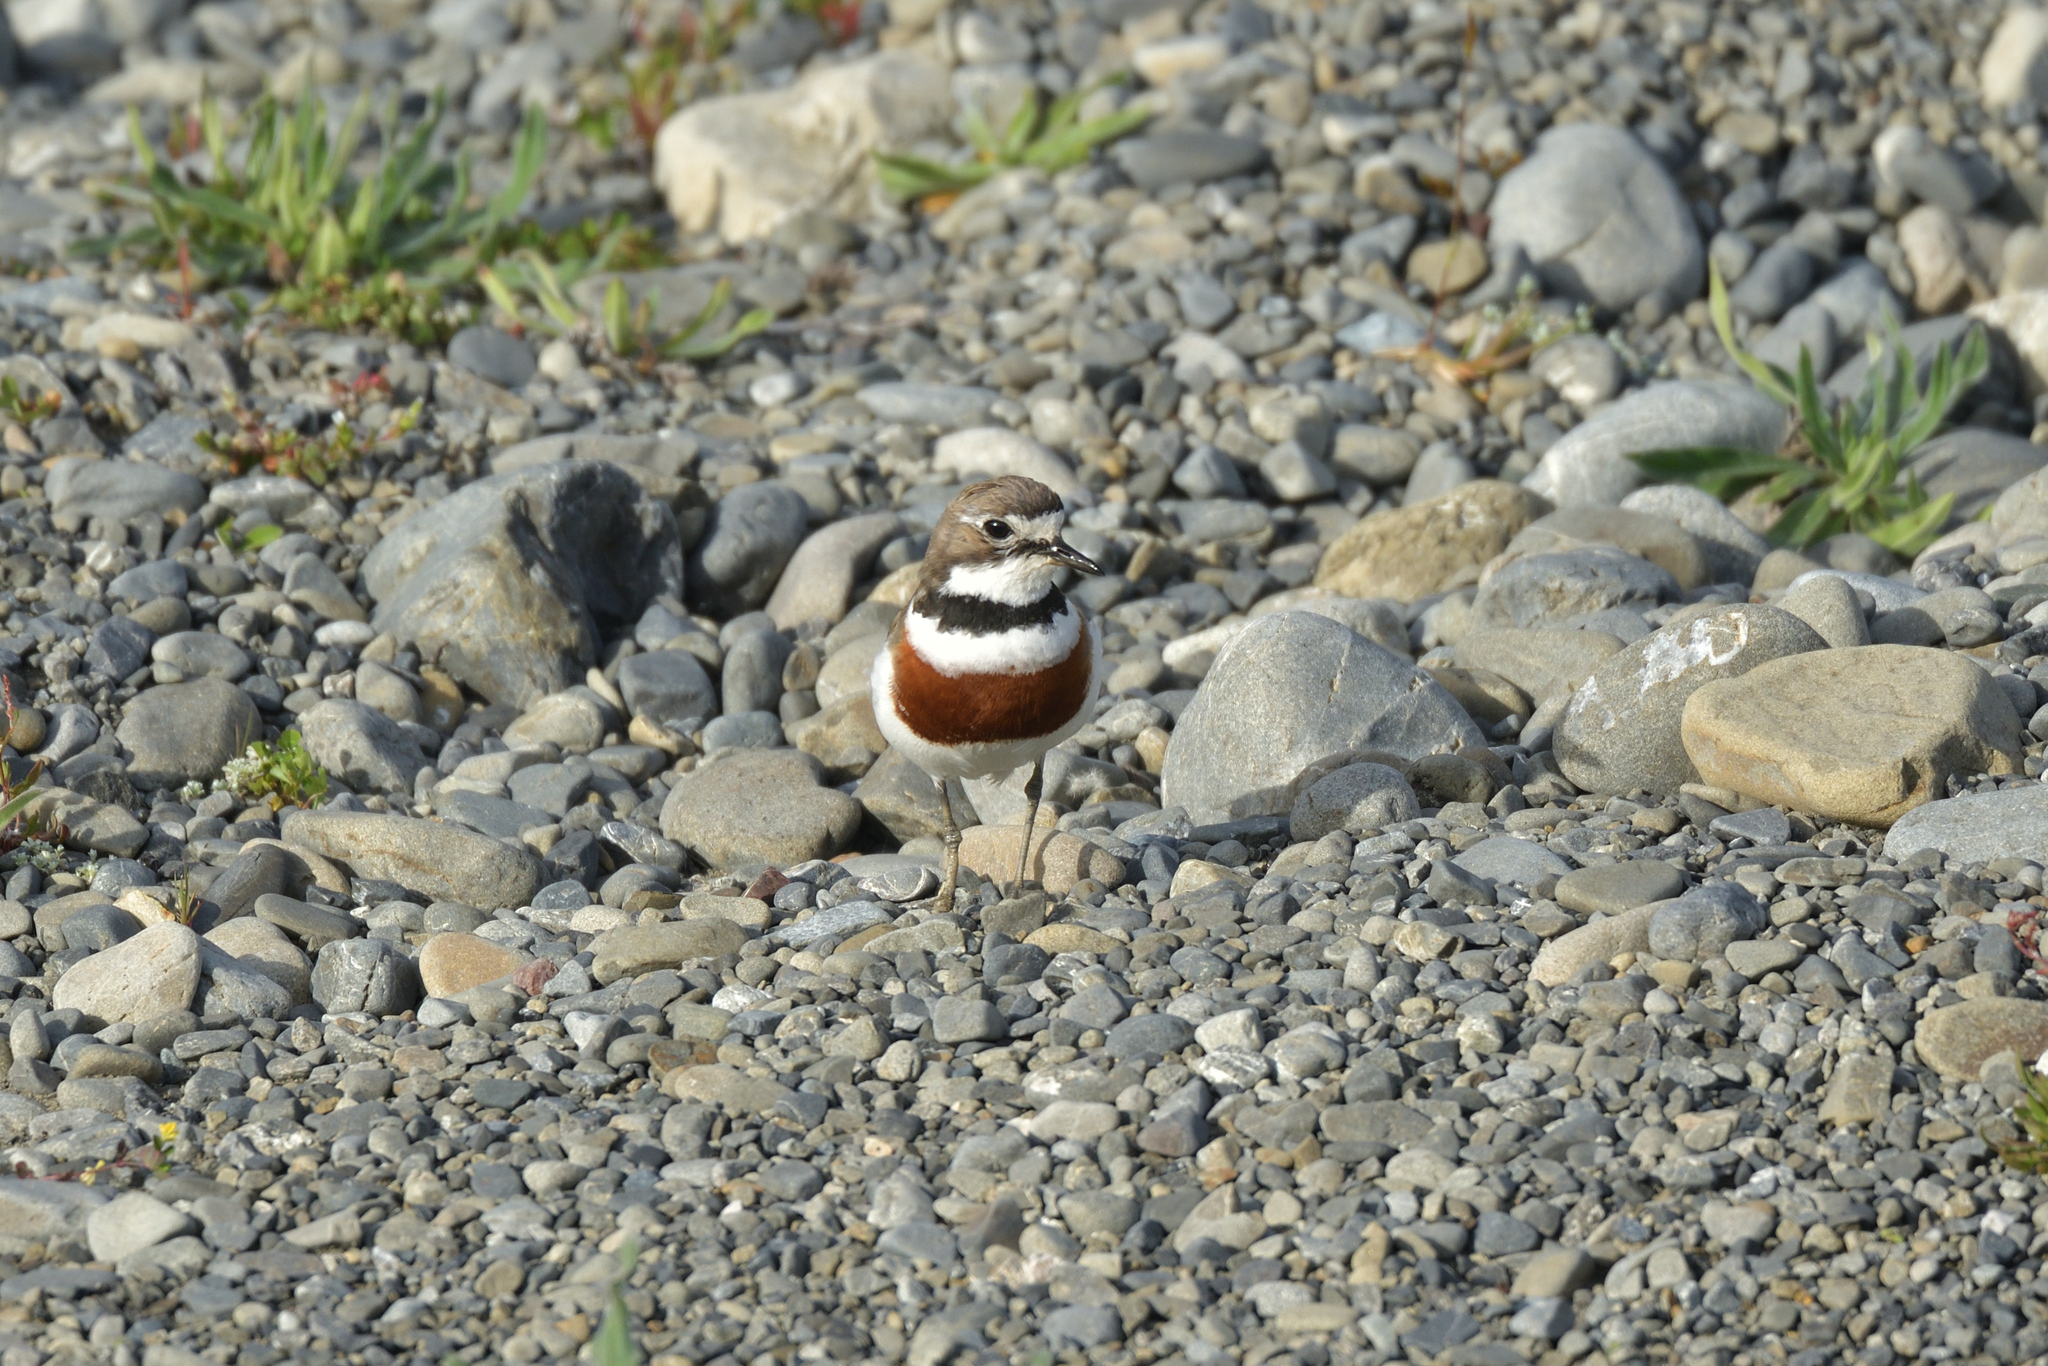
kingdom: Animalia
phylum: Chordata
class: Aves
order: Charadriiformes
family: Charadriidae
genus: Anarhynchus
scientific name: Anarhynchus
